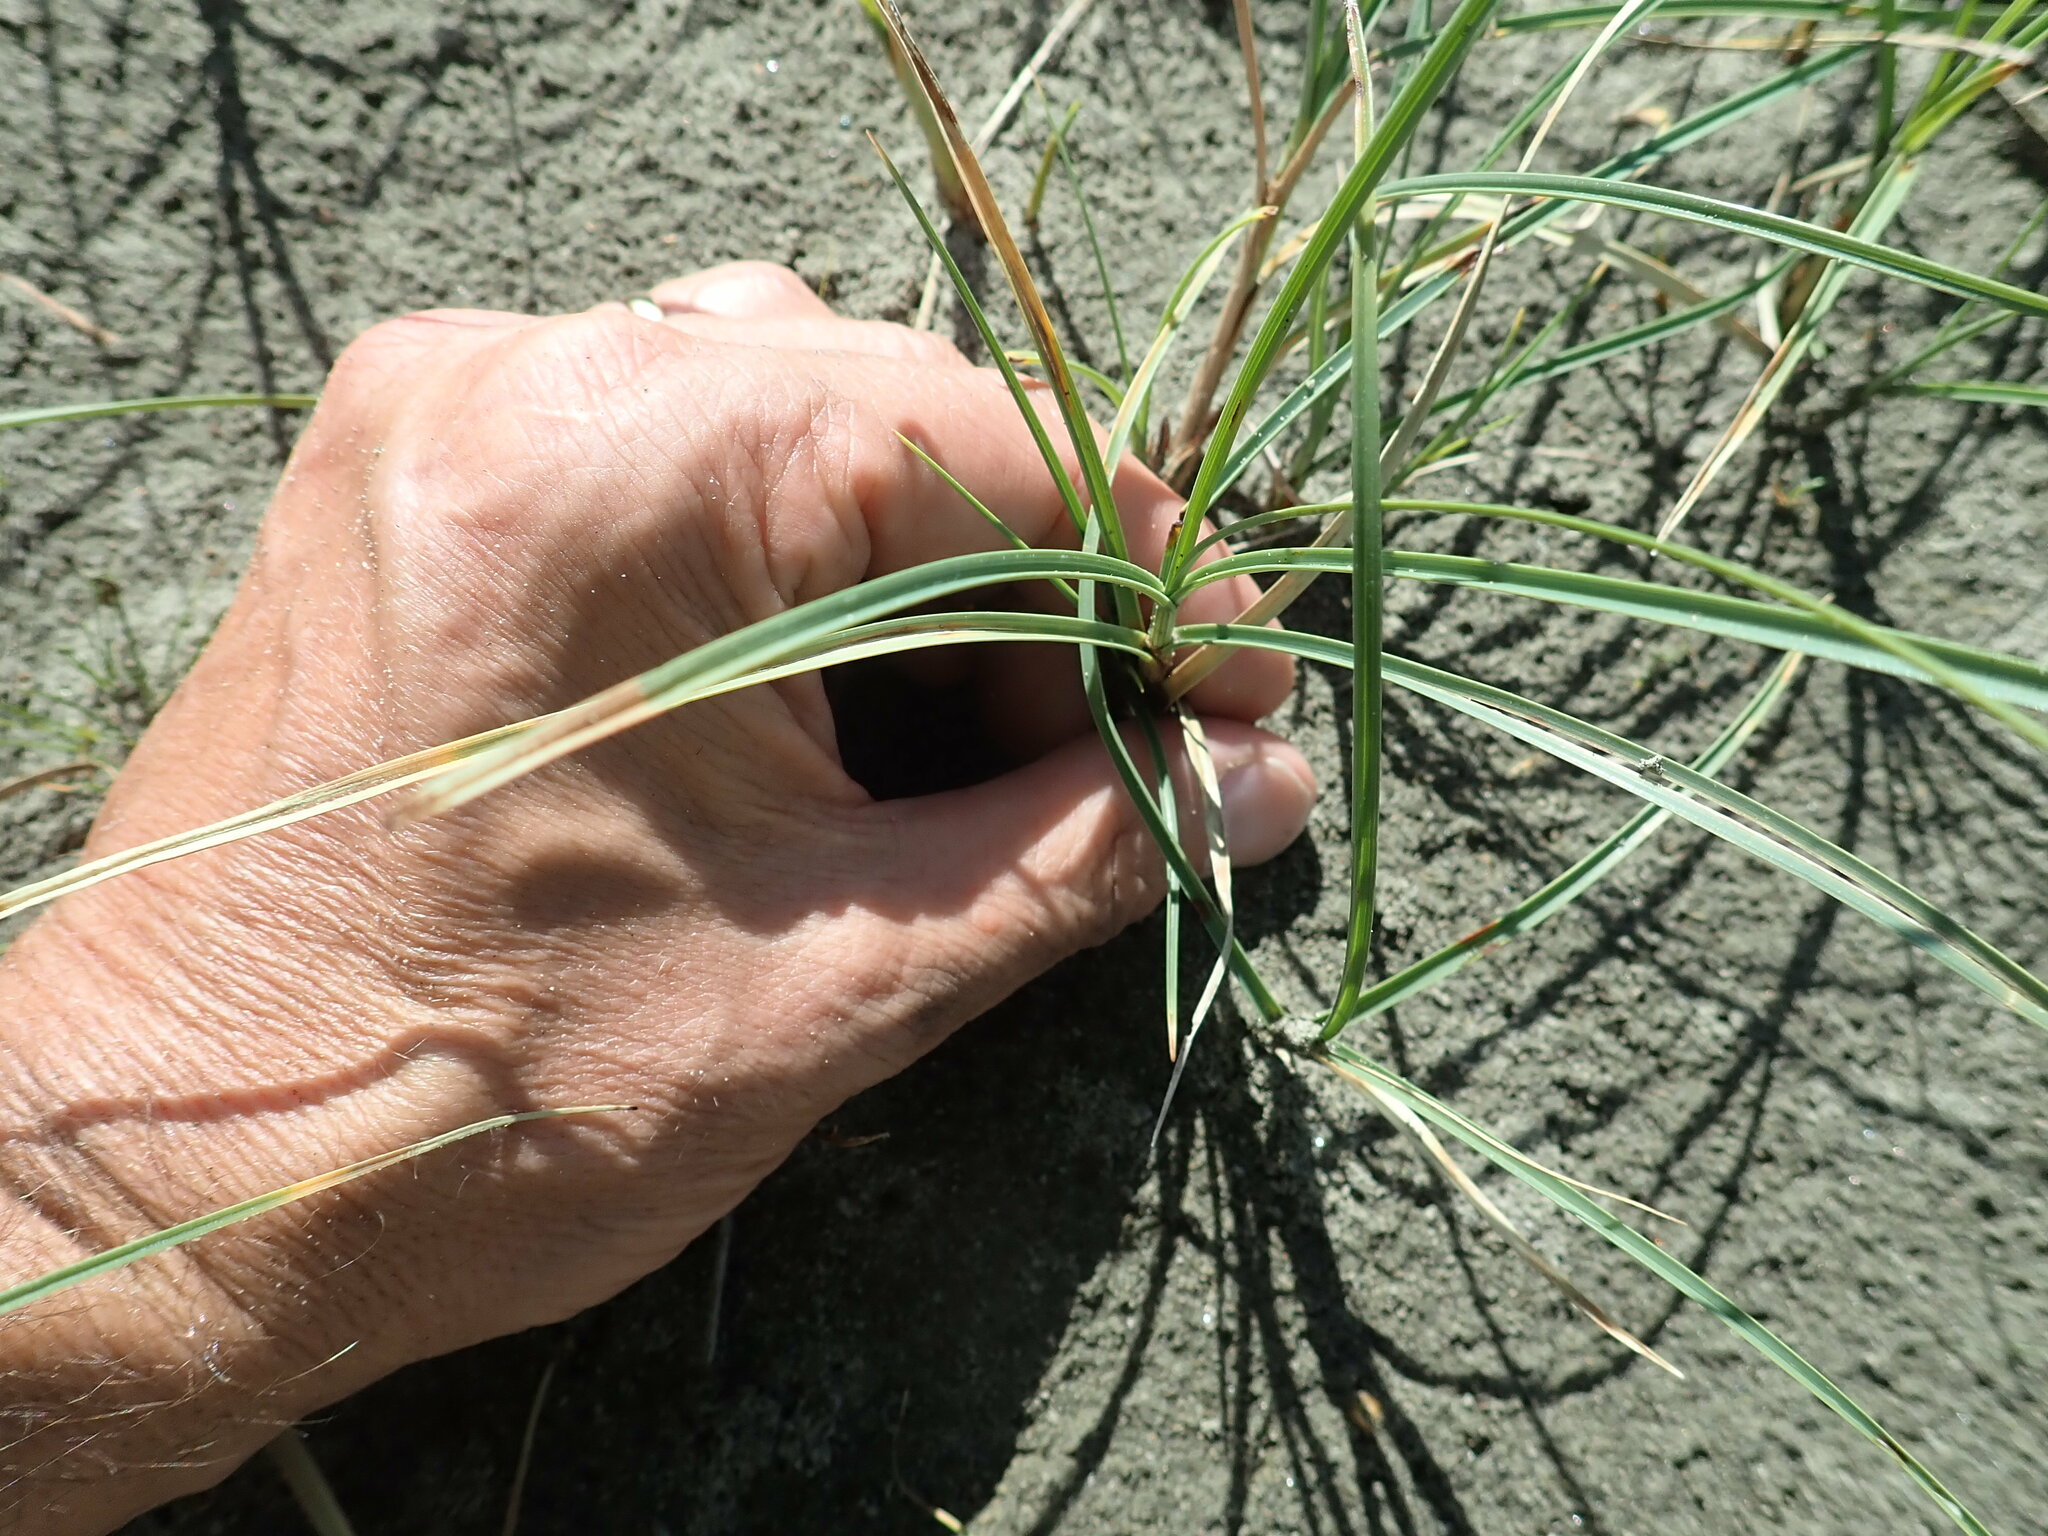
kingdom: Plantae
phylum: Tracheophyta
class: Liliopsida
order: Poales
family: Cyperaceae
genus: Carex
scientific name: Carex pumila
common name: Dwarf sedge
